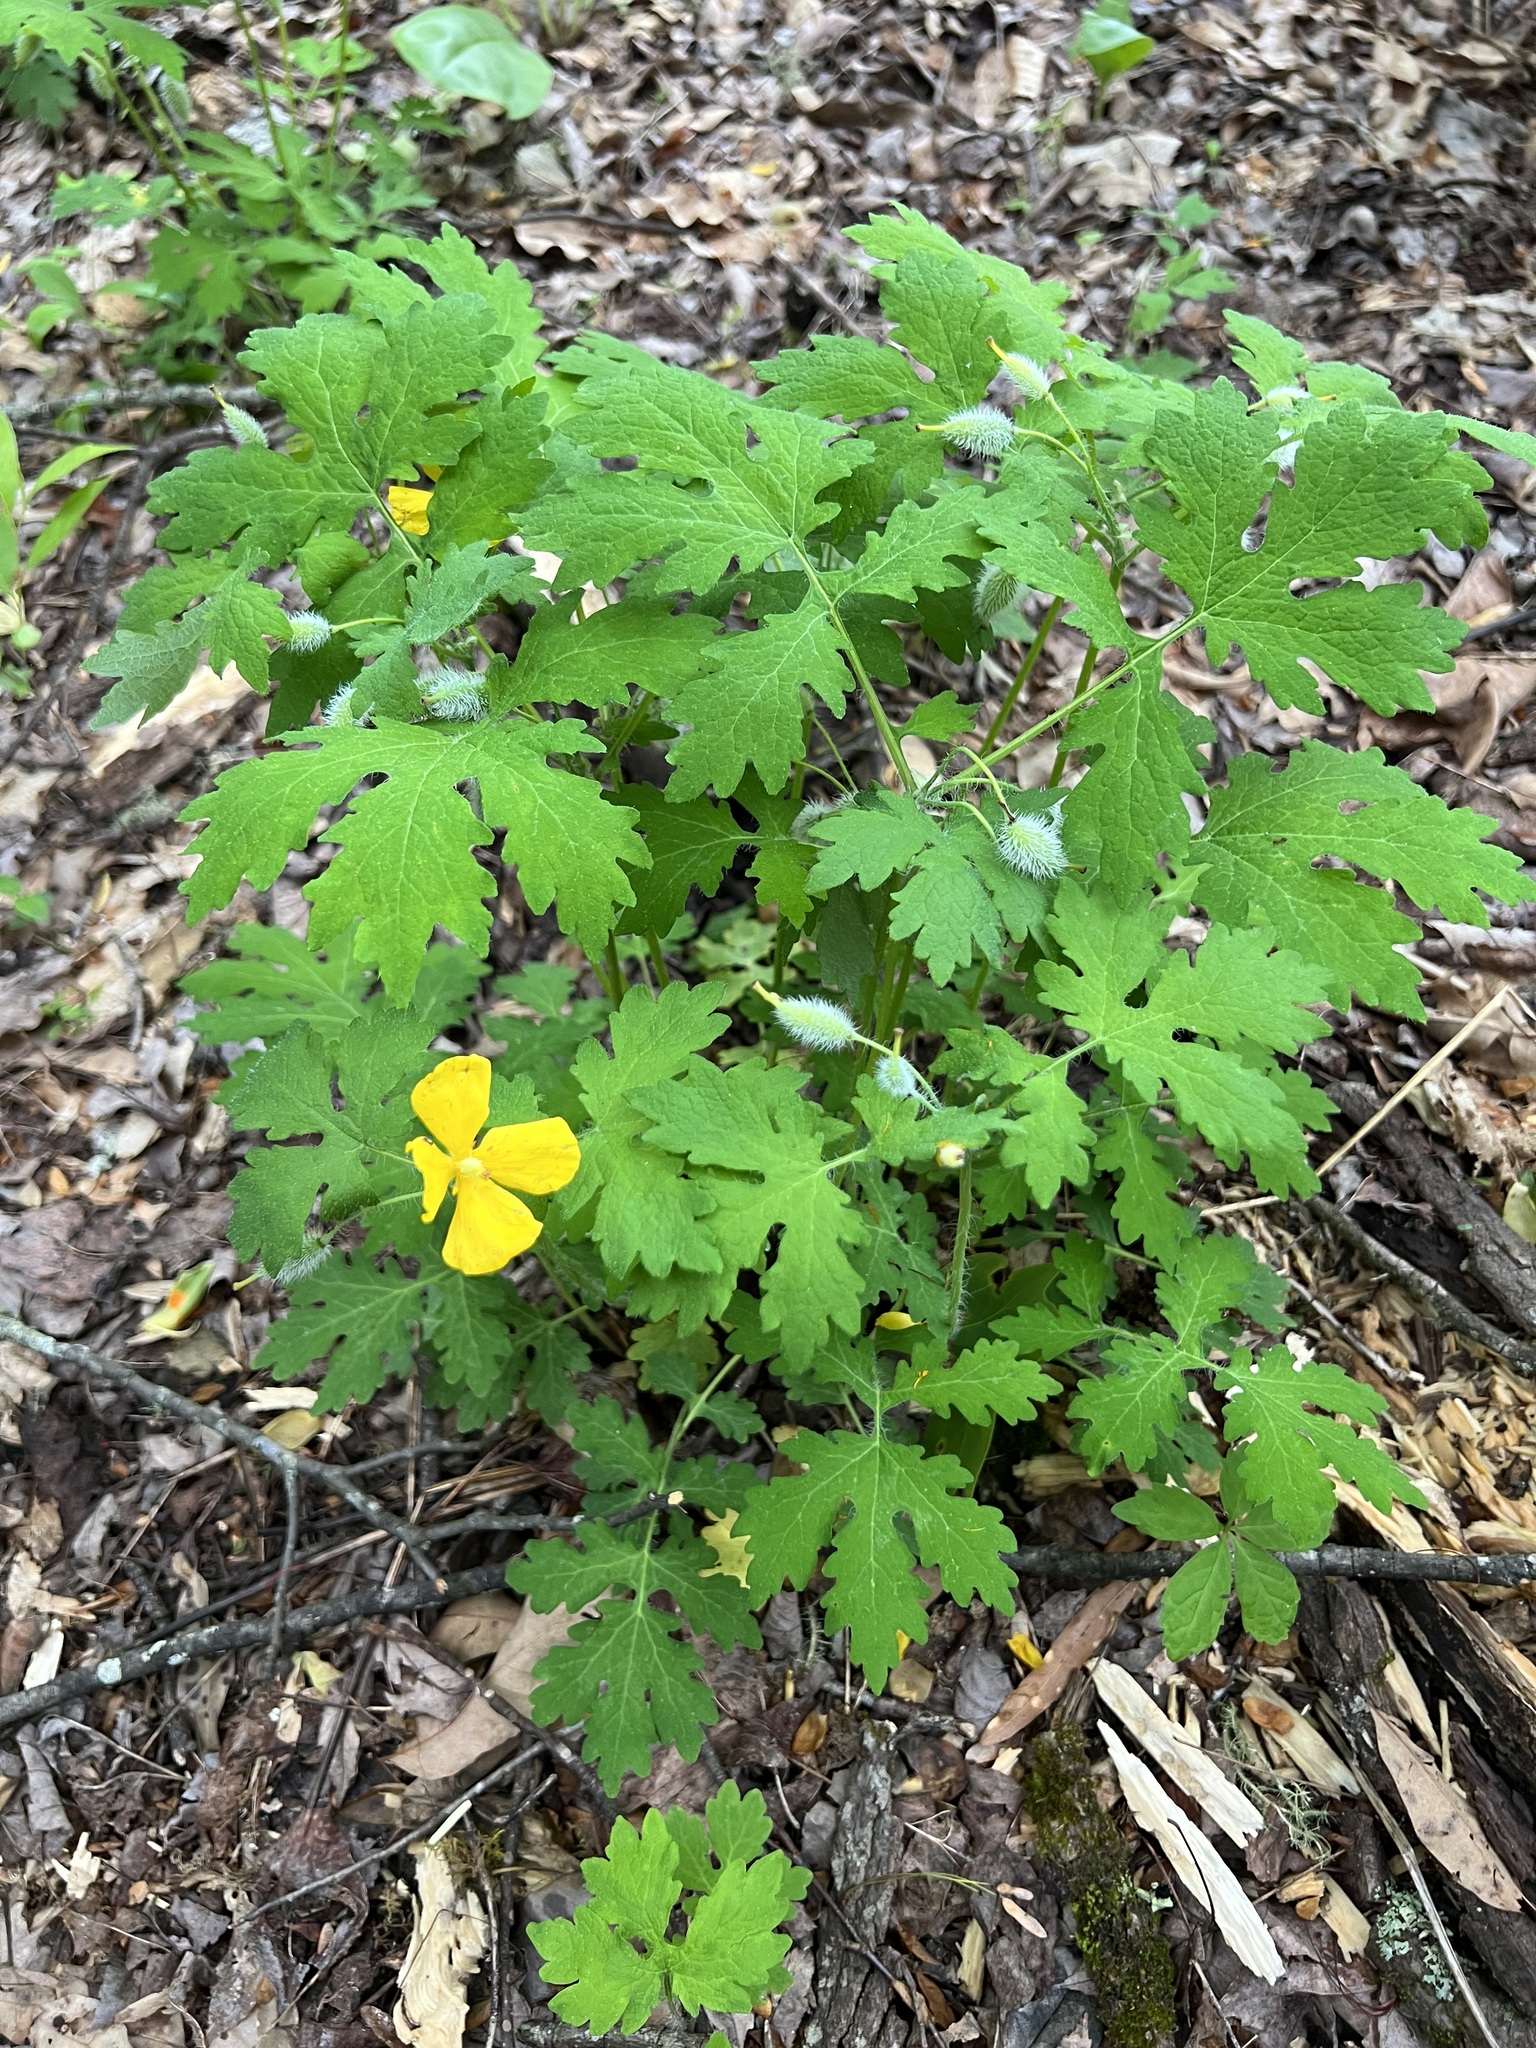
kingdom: Plantae
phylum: Tracheophyta
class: Magnoliopsida
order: Ranunculales
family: Papaveraceae
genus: Stylophorum
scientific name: Stylophorum diphyllum
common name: Celandine poppy
